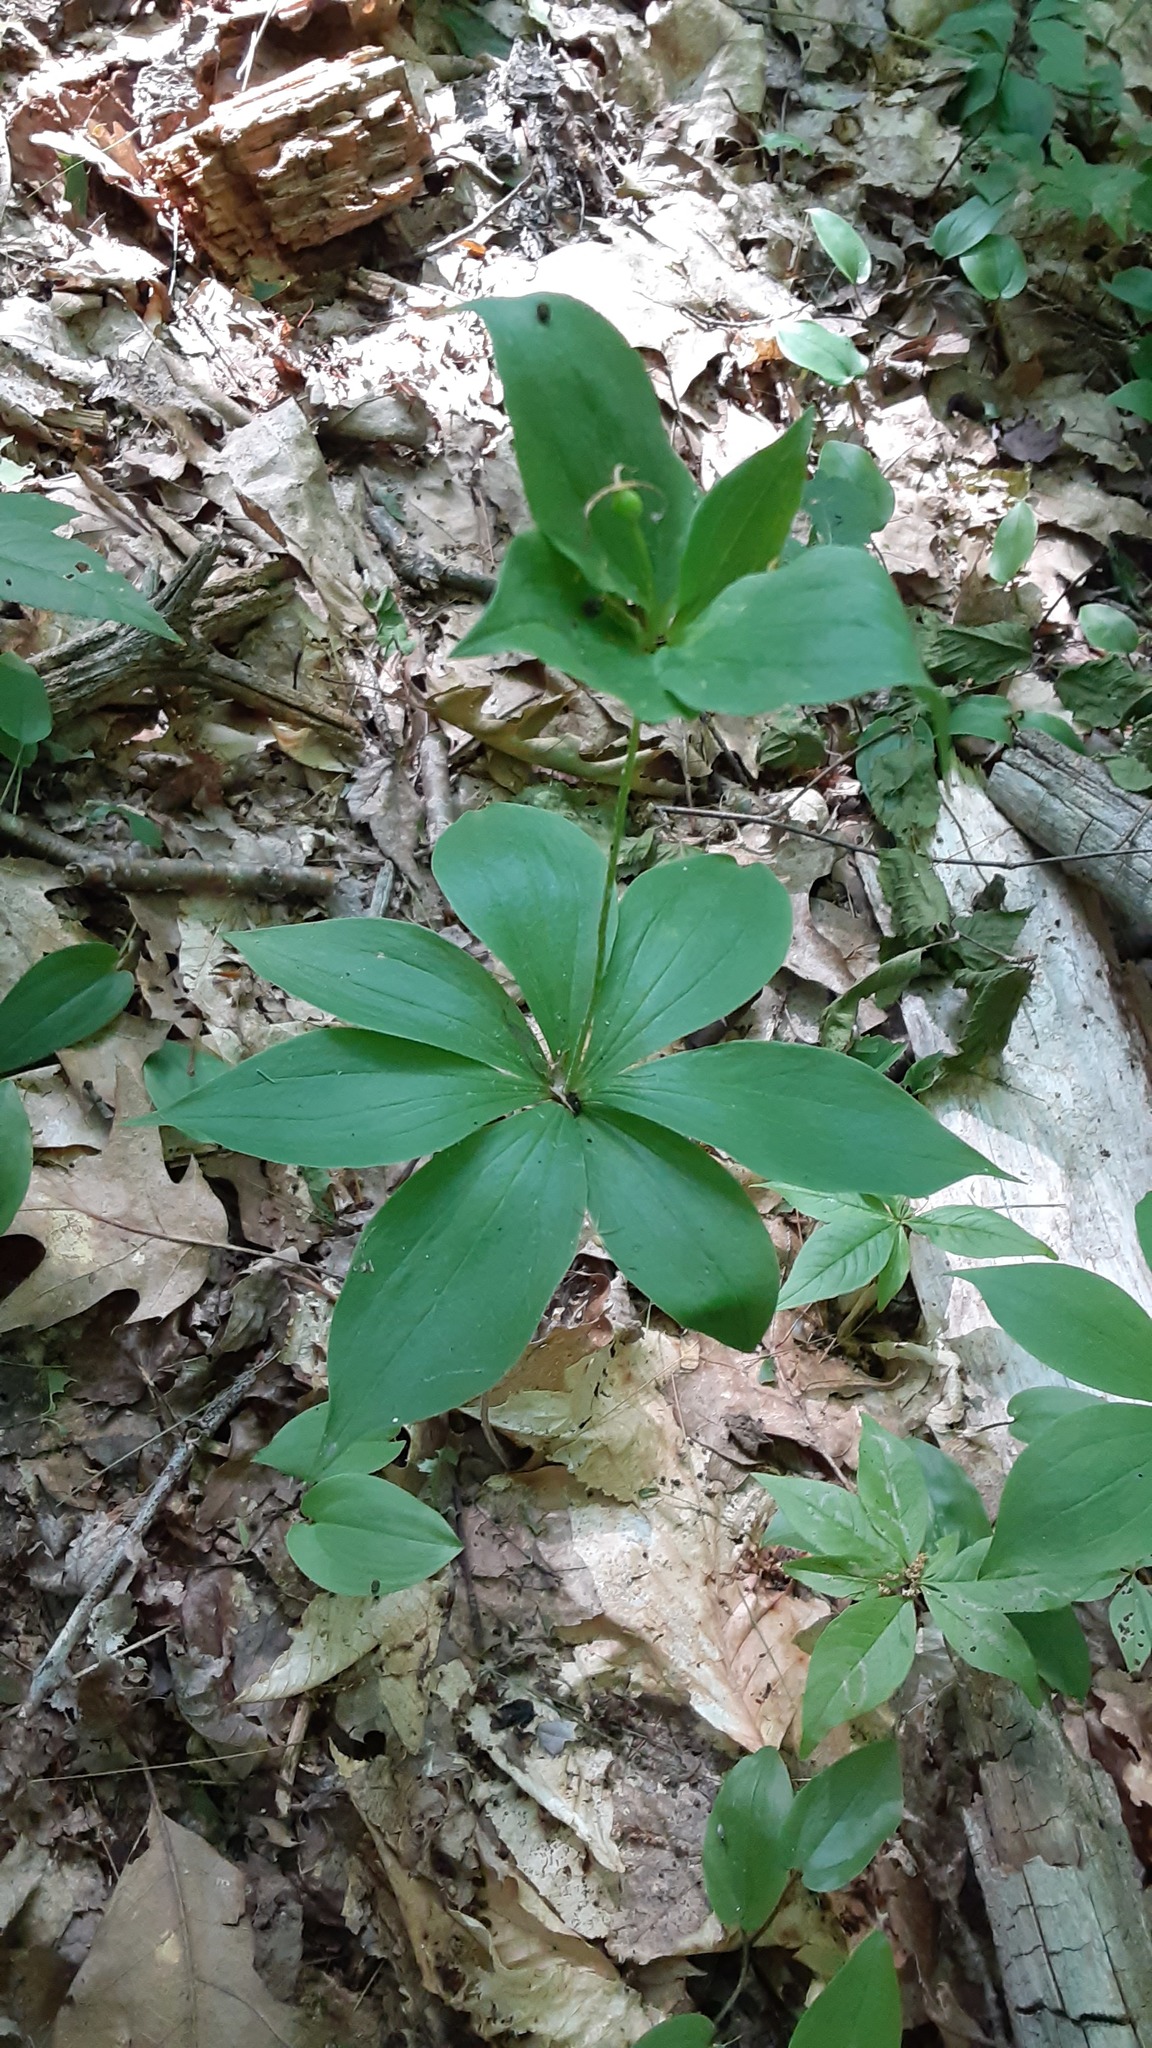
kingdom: Plantae
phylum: Tracheophyta
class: Liliopsida
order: Liliales
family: Liliaceae
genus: Medeola
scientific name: Medeola virginiana
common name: Indian cucumber-root
